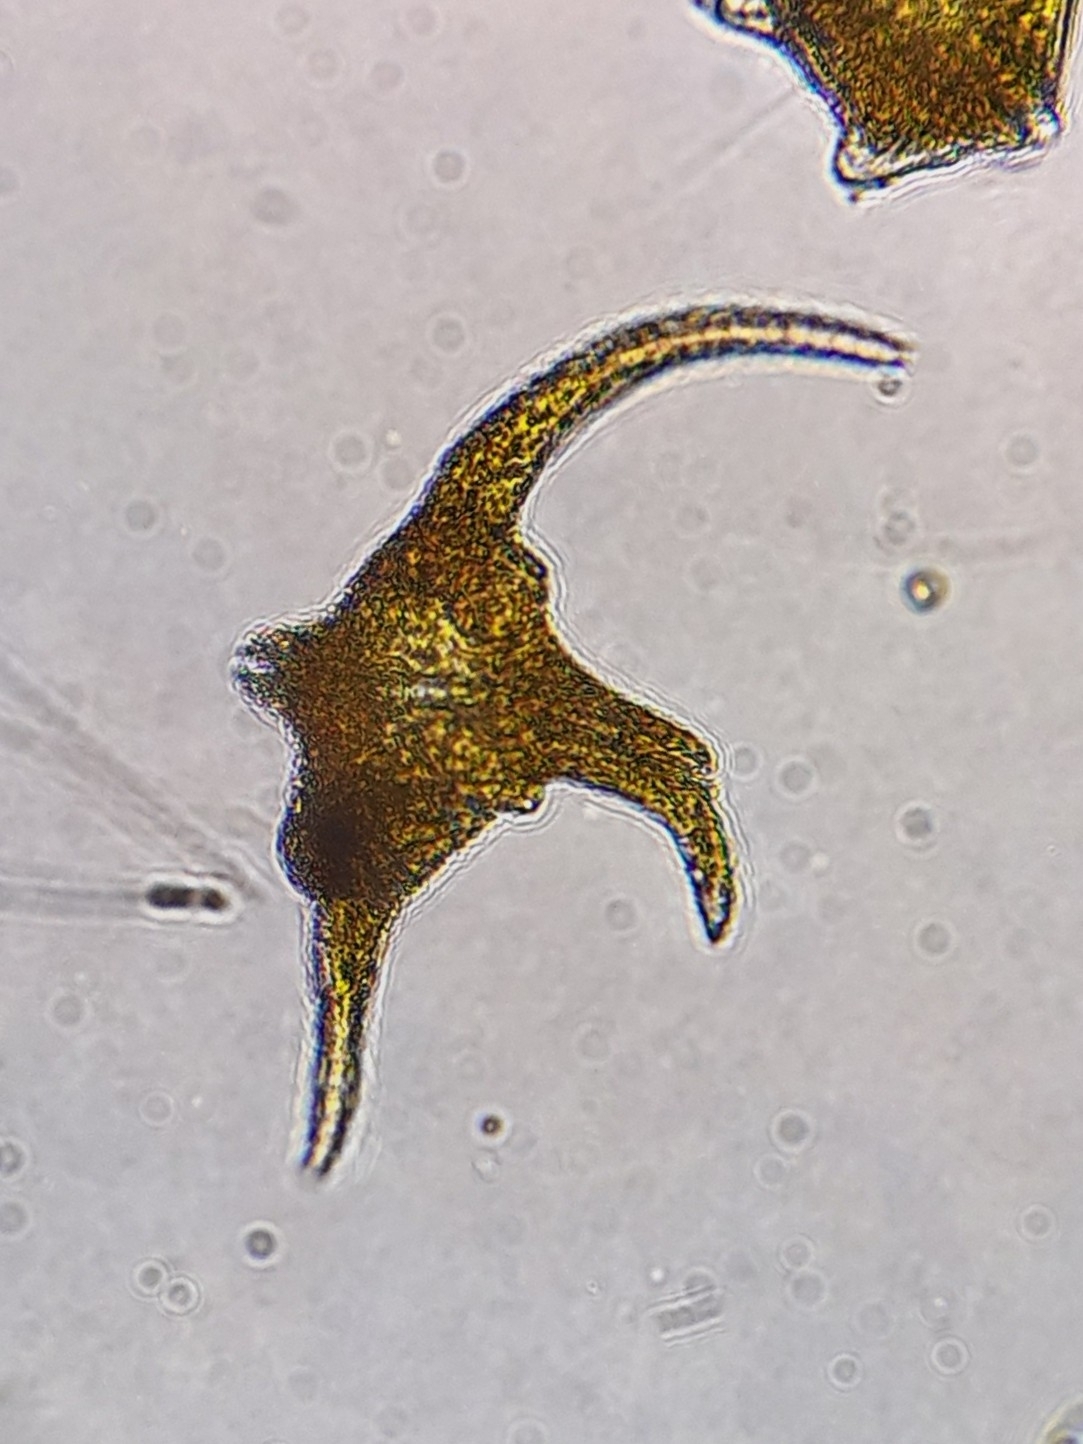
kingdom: Chromista
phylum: Myzozoa
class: Dinophyceae
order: Gonyaulacales
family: Ceratiaceae
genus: Ceratium
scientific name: Ceratium carolinianum
